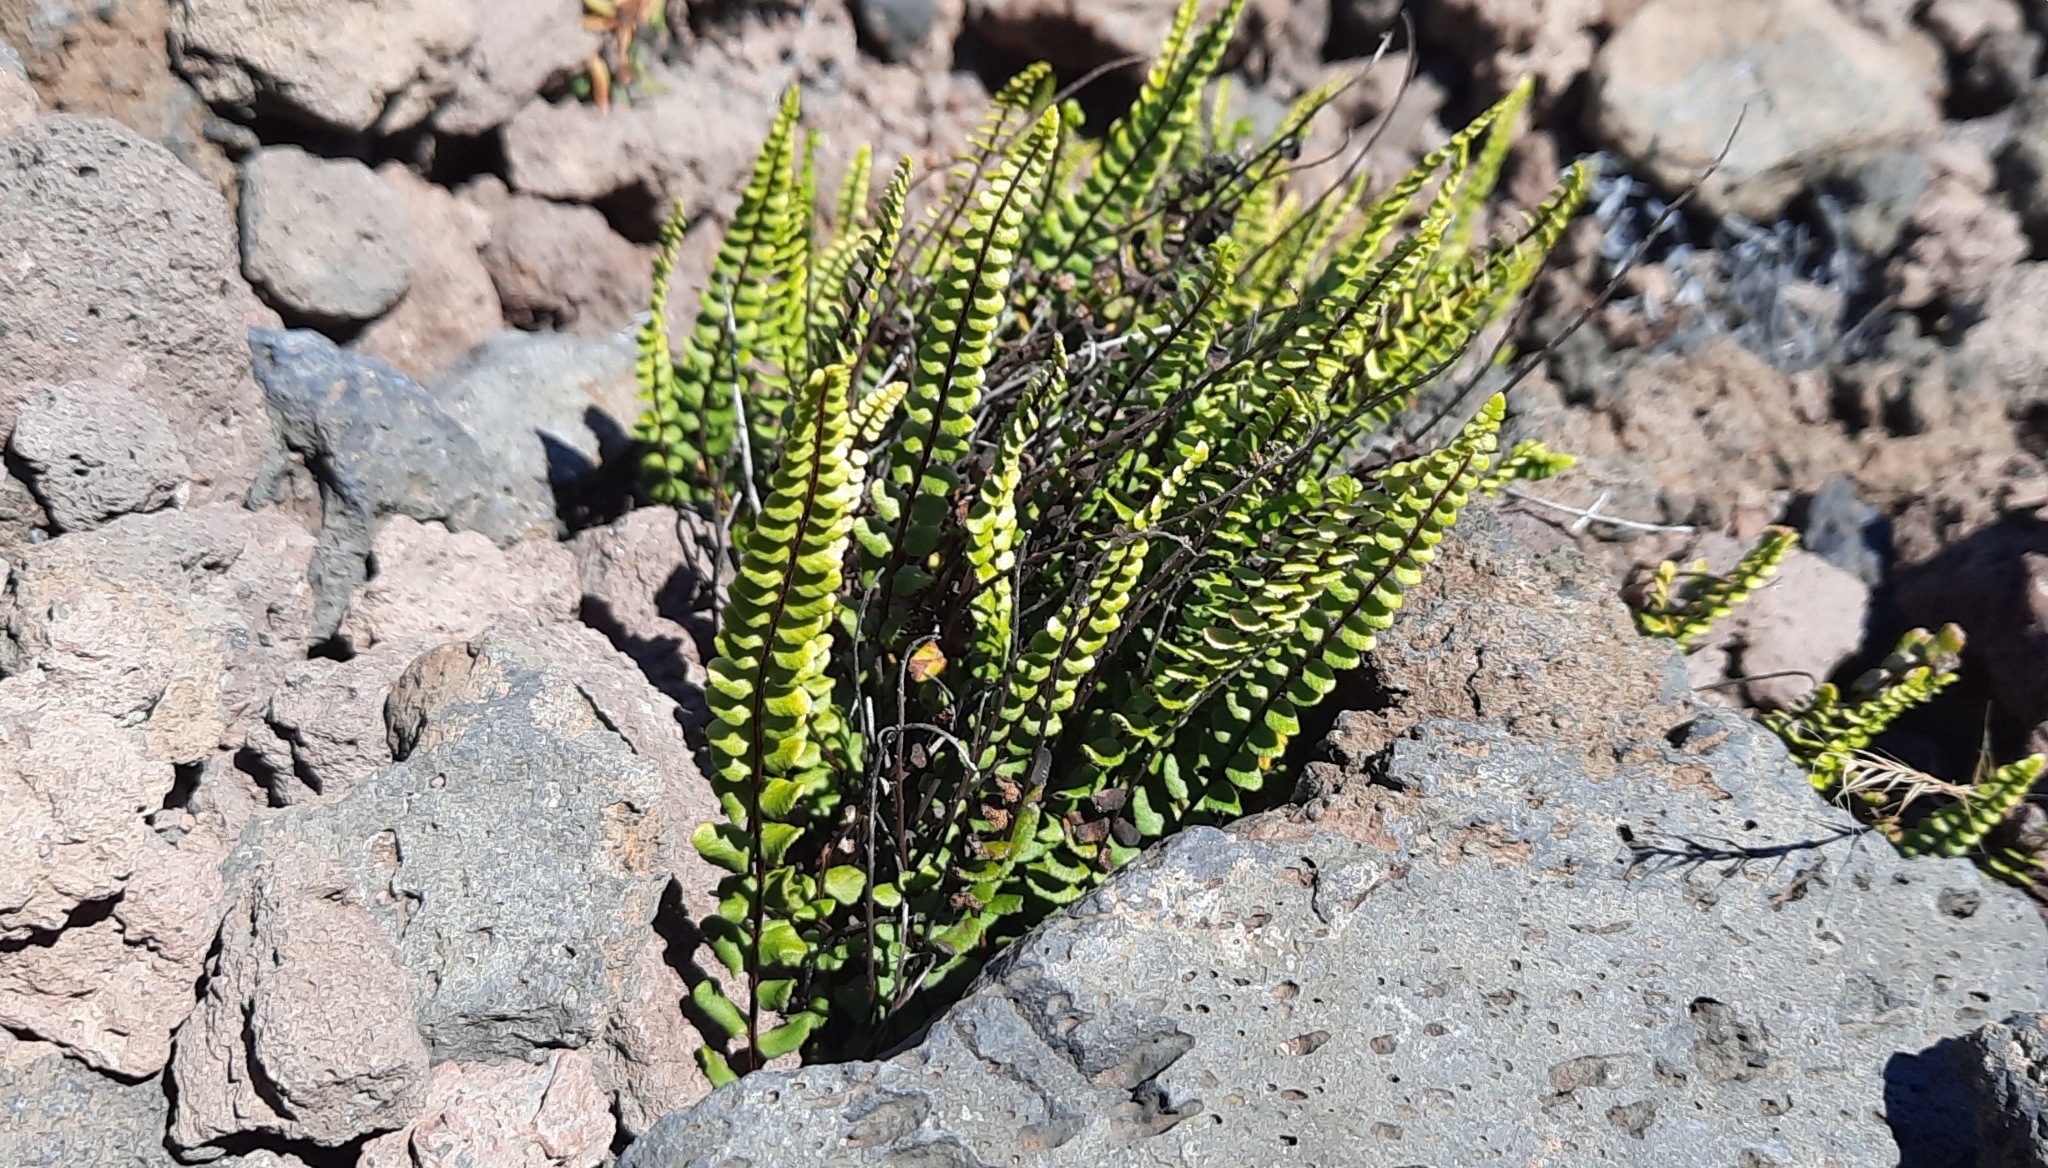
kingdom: Plantae
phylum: Tracheophyta
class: Polypodiopsida
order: Polypodiales
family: Aspleniaceae
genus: Asplenium
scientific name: Asplenium trichomanes
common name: Maidenhair spleenwort
